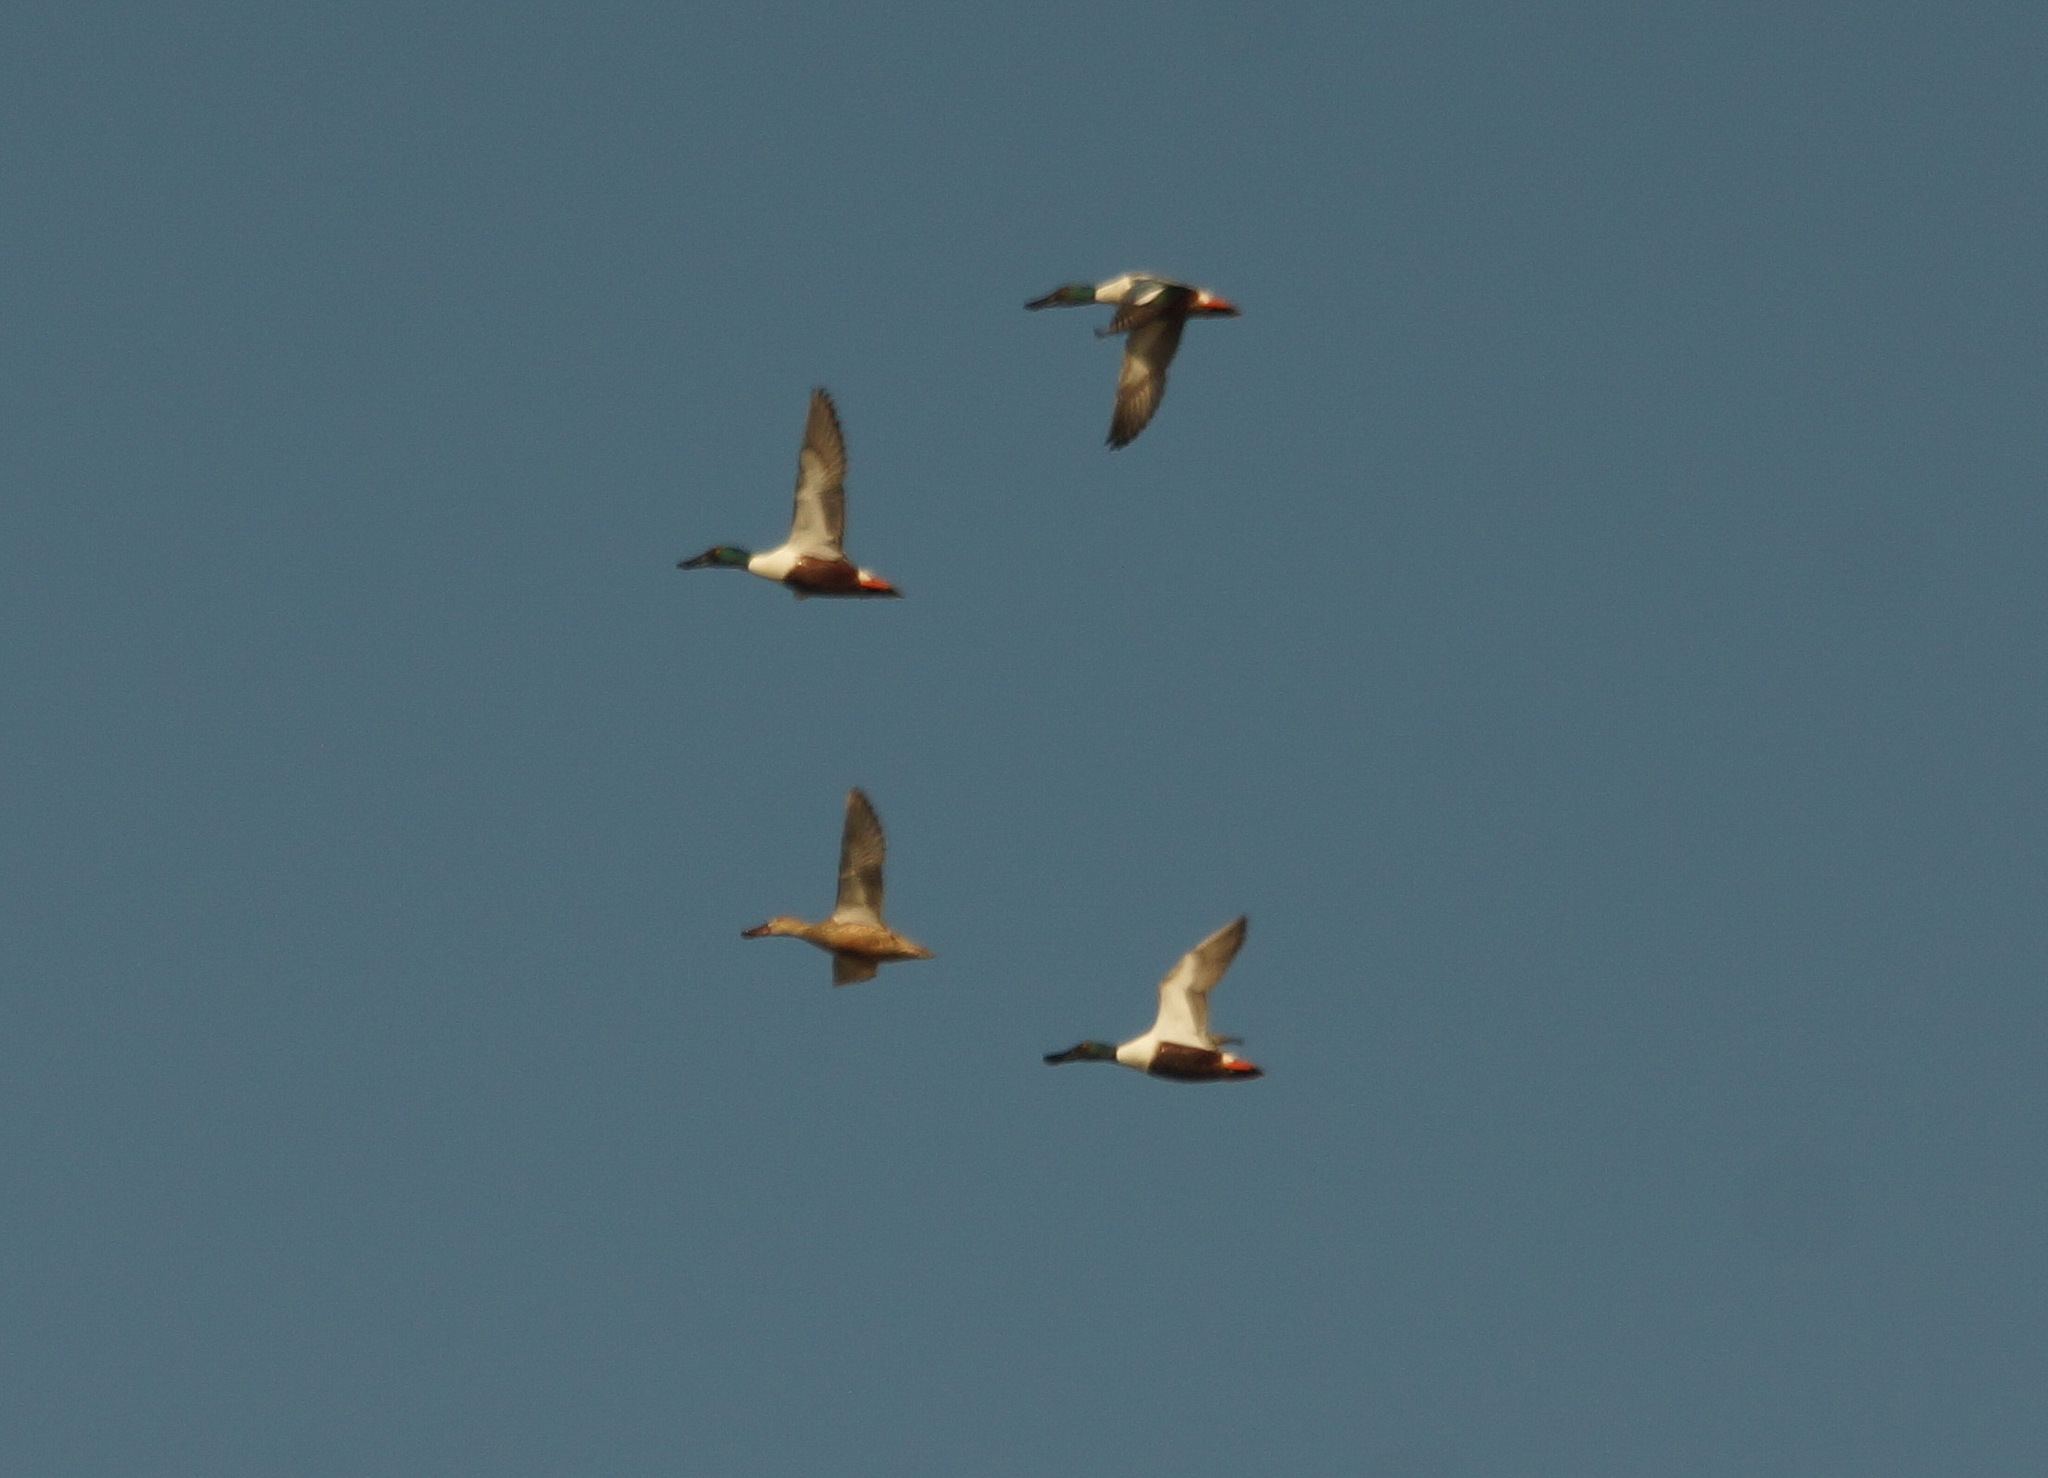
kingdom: Animalia
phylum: Chordata
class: Aves
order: Anseriformes
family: Anatidae
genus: Spatula
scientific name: Spatula clypeata
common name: Northern shoveler
